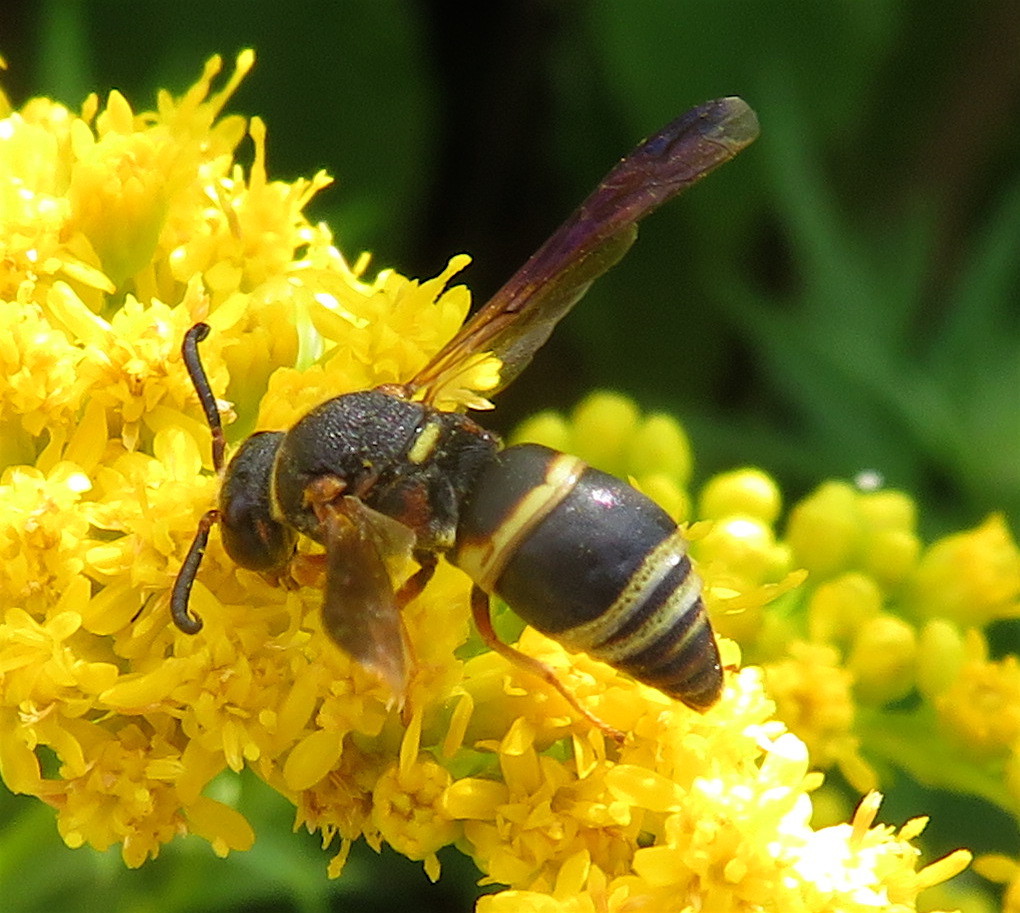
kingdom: Animalia
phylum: Arthropoda
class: Insecta
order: Hymenoptera
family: Eumenidae
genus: Euodynerus
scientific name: Euodynerus hidalgo
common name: Wasp
